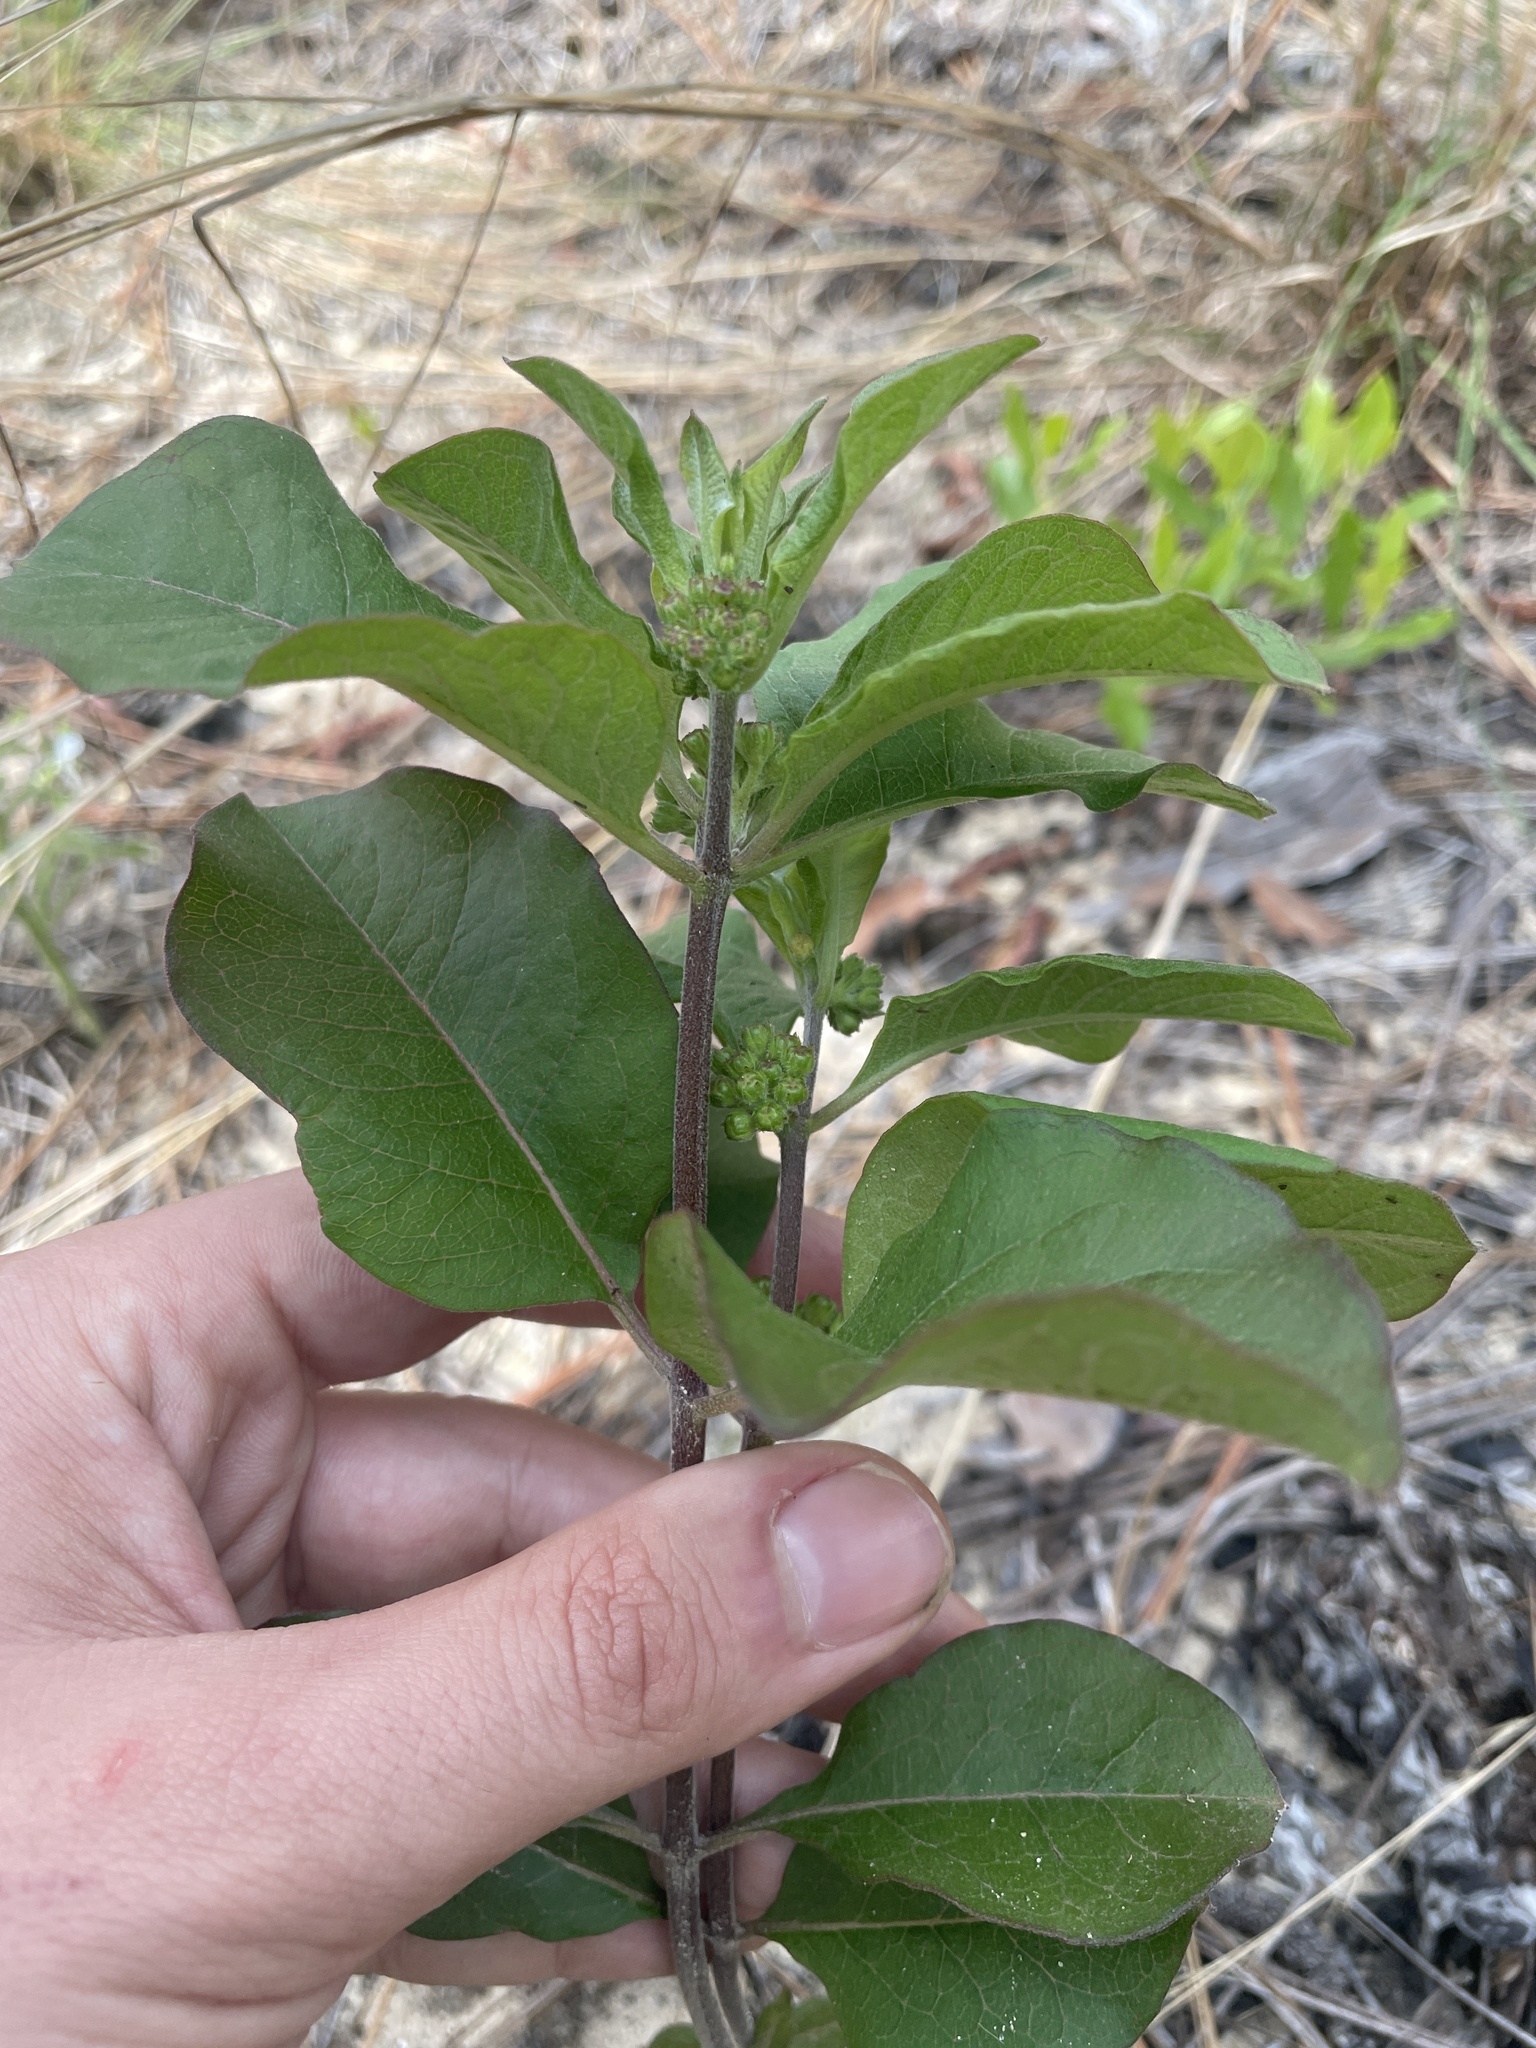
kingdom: Plantae
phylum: Tracheophyta
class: Magnoliopsida
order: Gentianales
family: Apocynaceae
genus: Asclepias
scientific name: Asclepias tomentosa
